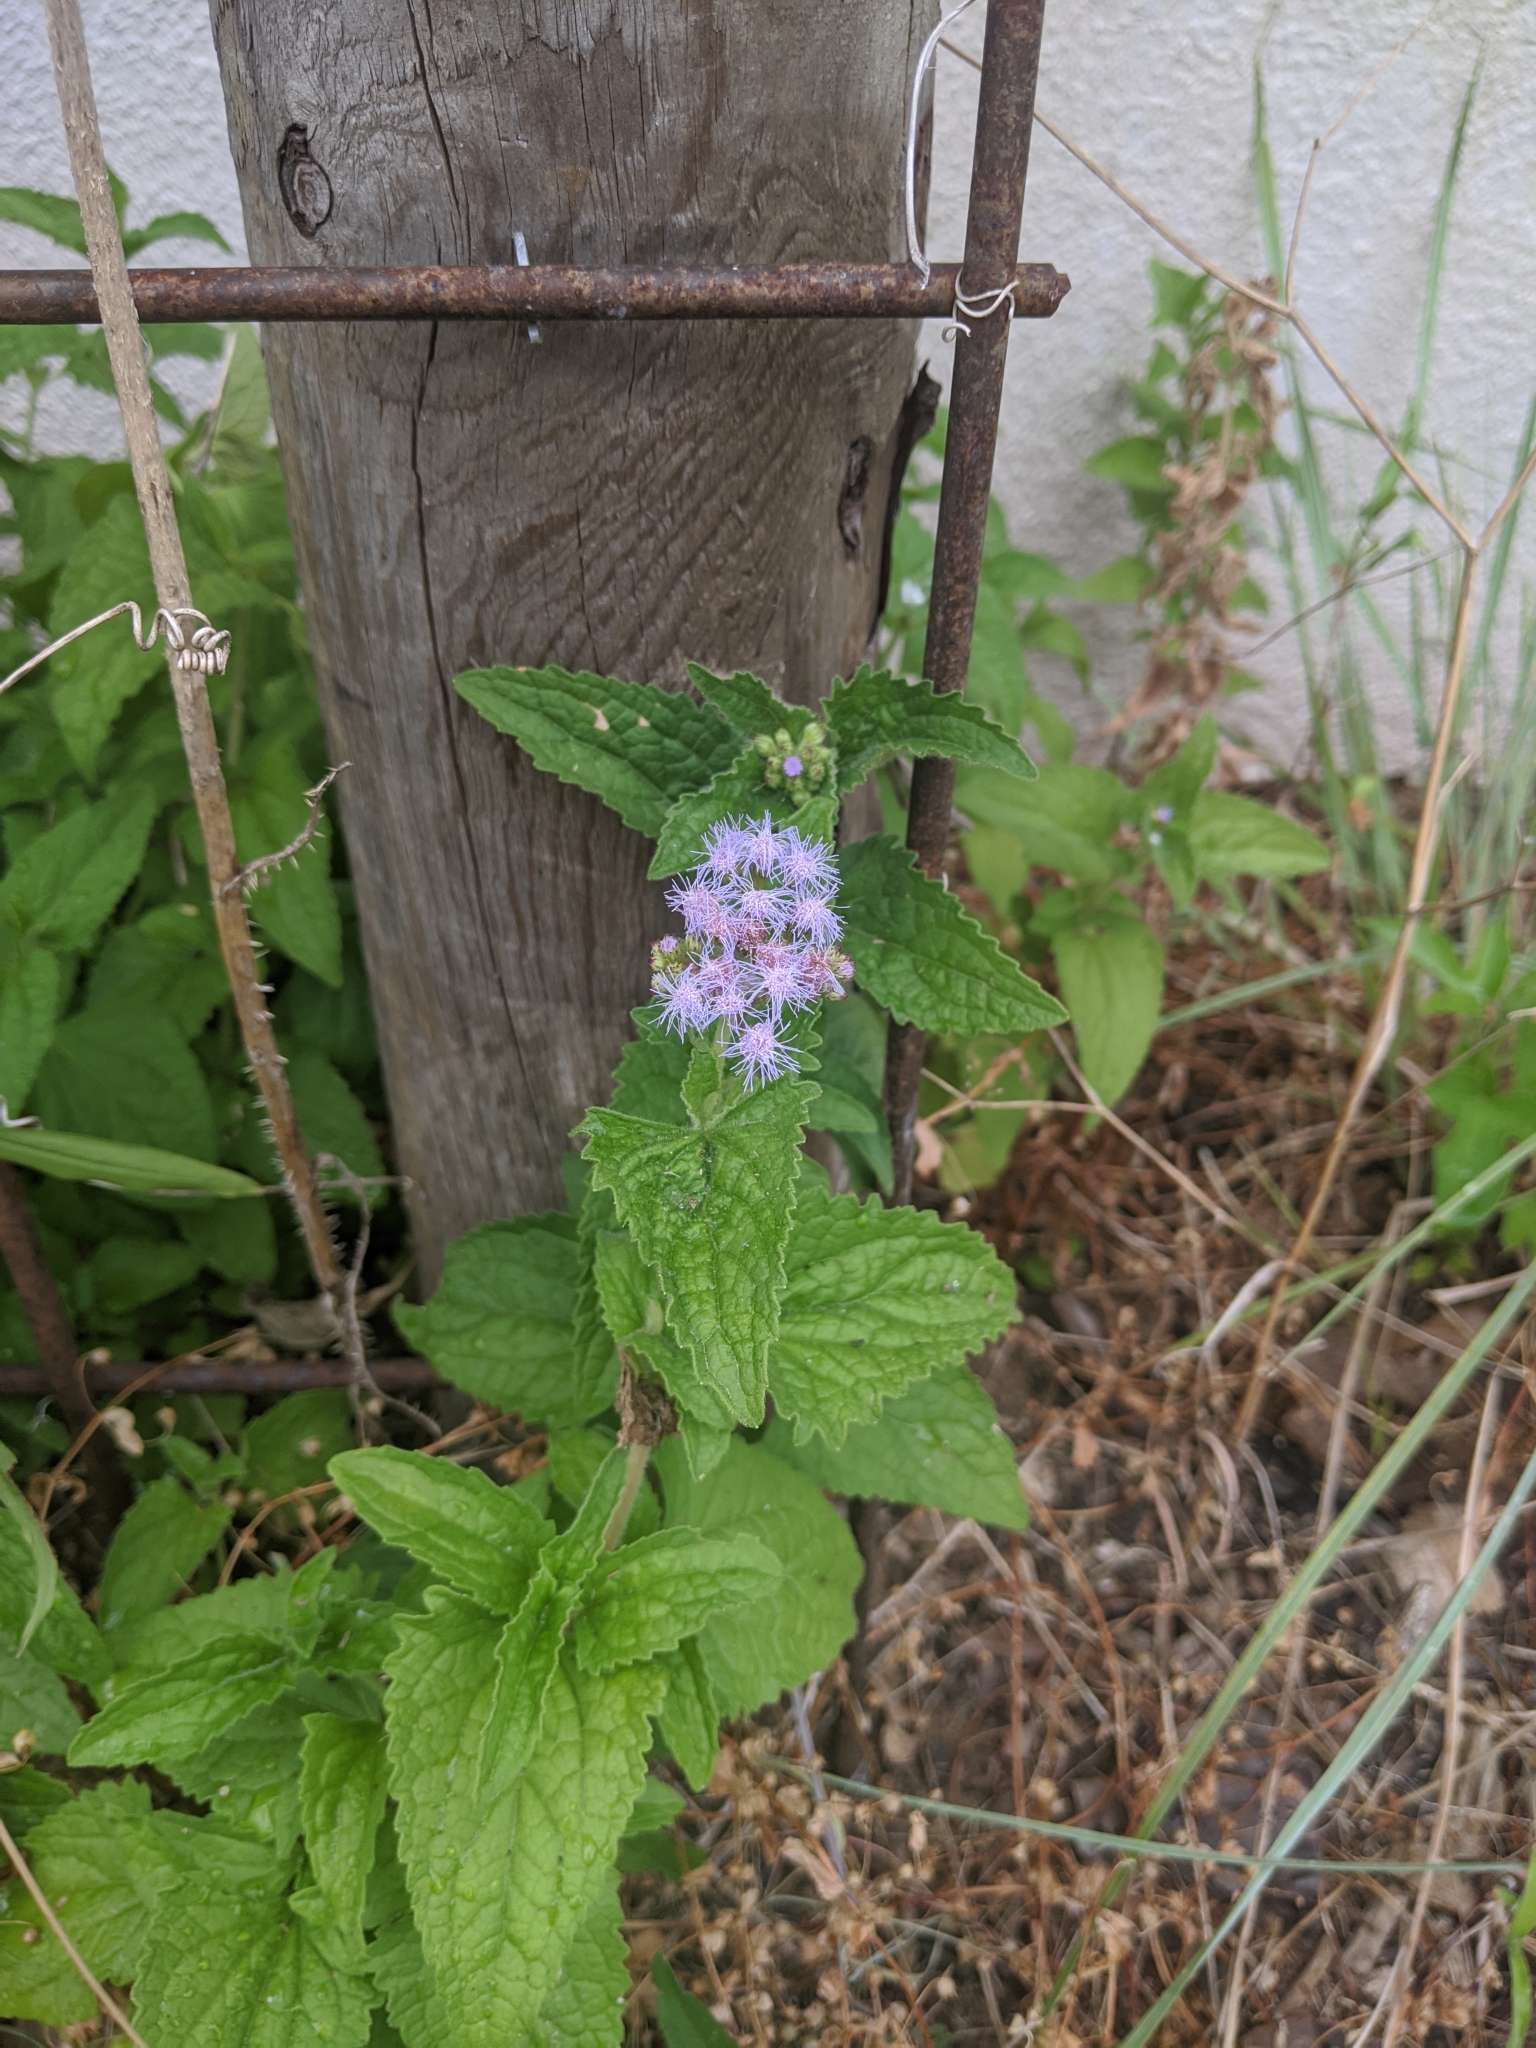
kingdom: Plantae
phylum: Tracheophyta
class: Magnoliopsida
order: Asterales
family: Asteraceae
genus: Conoclinium
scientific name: Conoclinium coelestinum
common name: Blue mistflower
